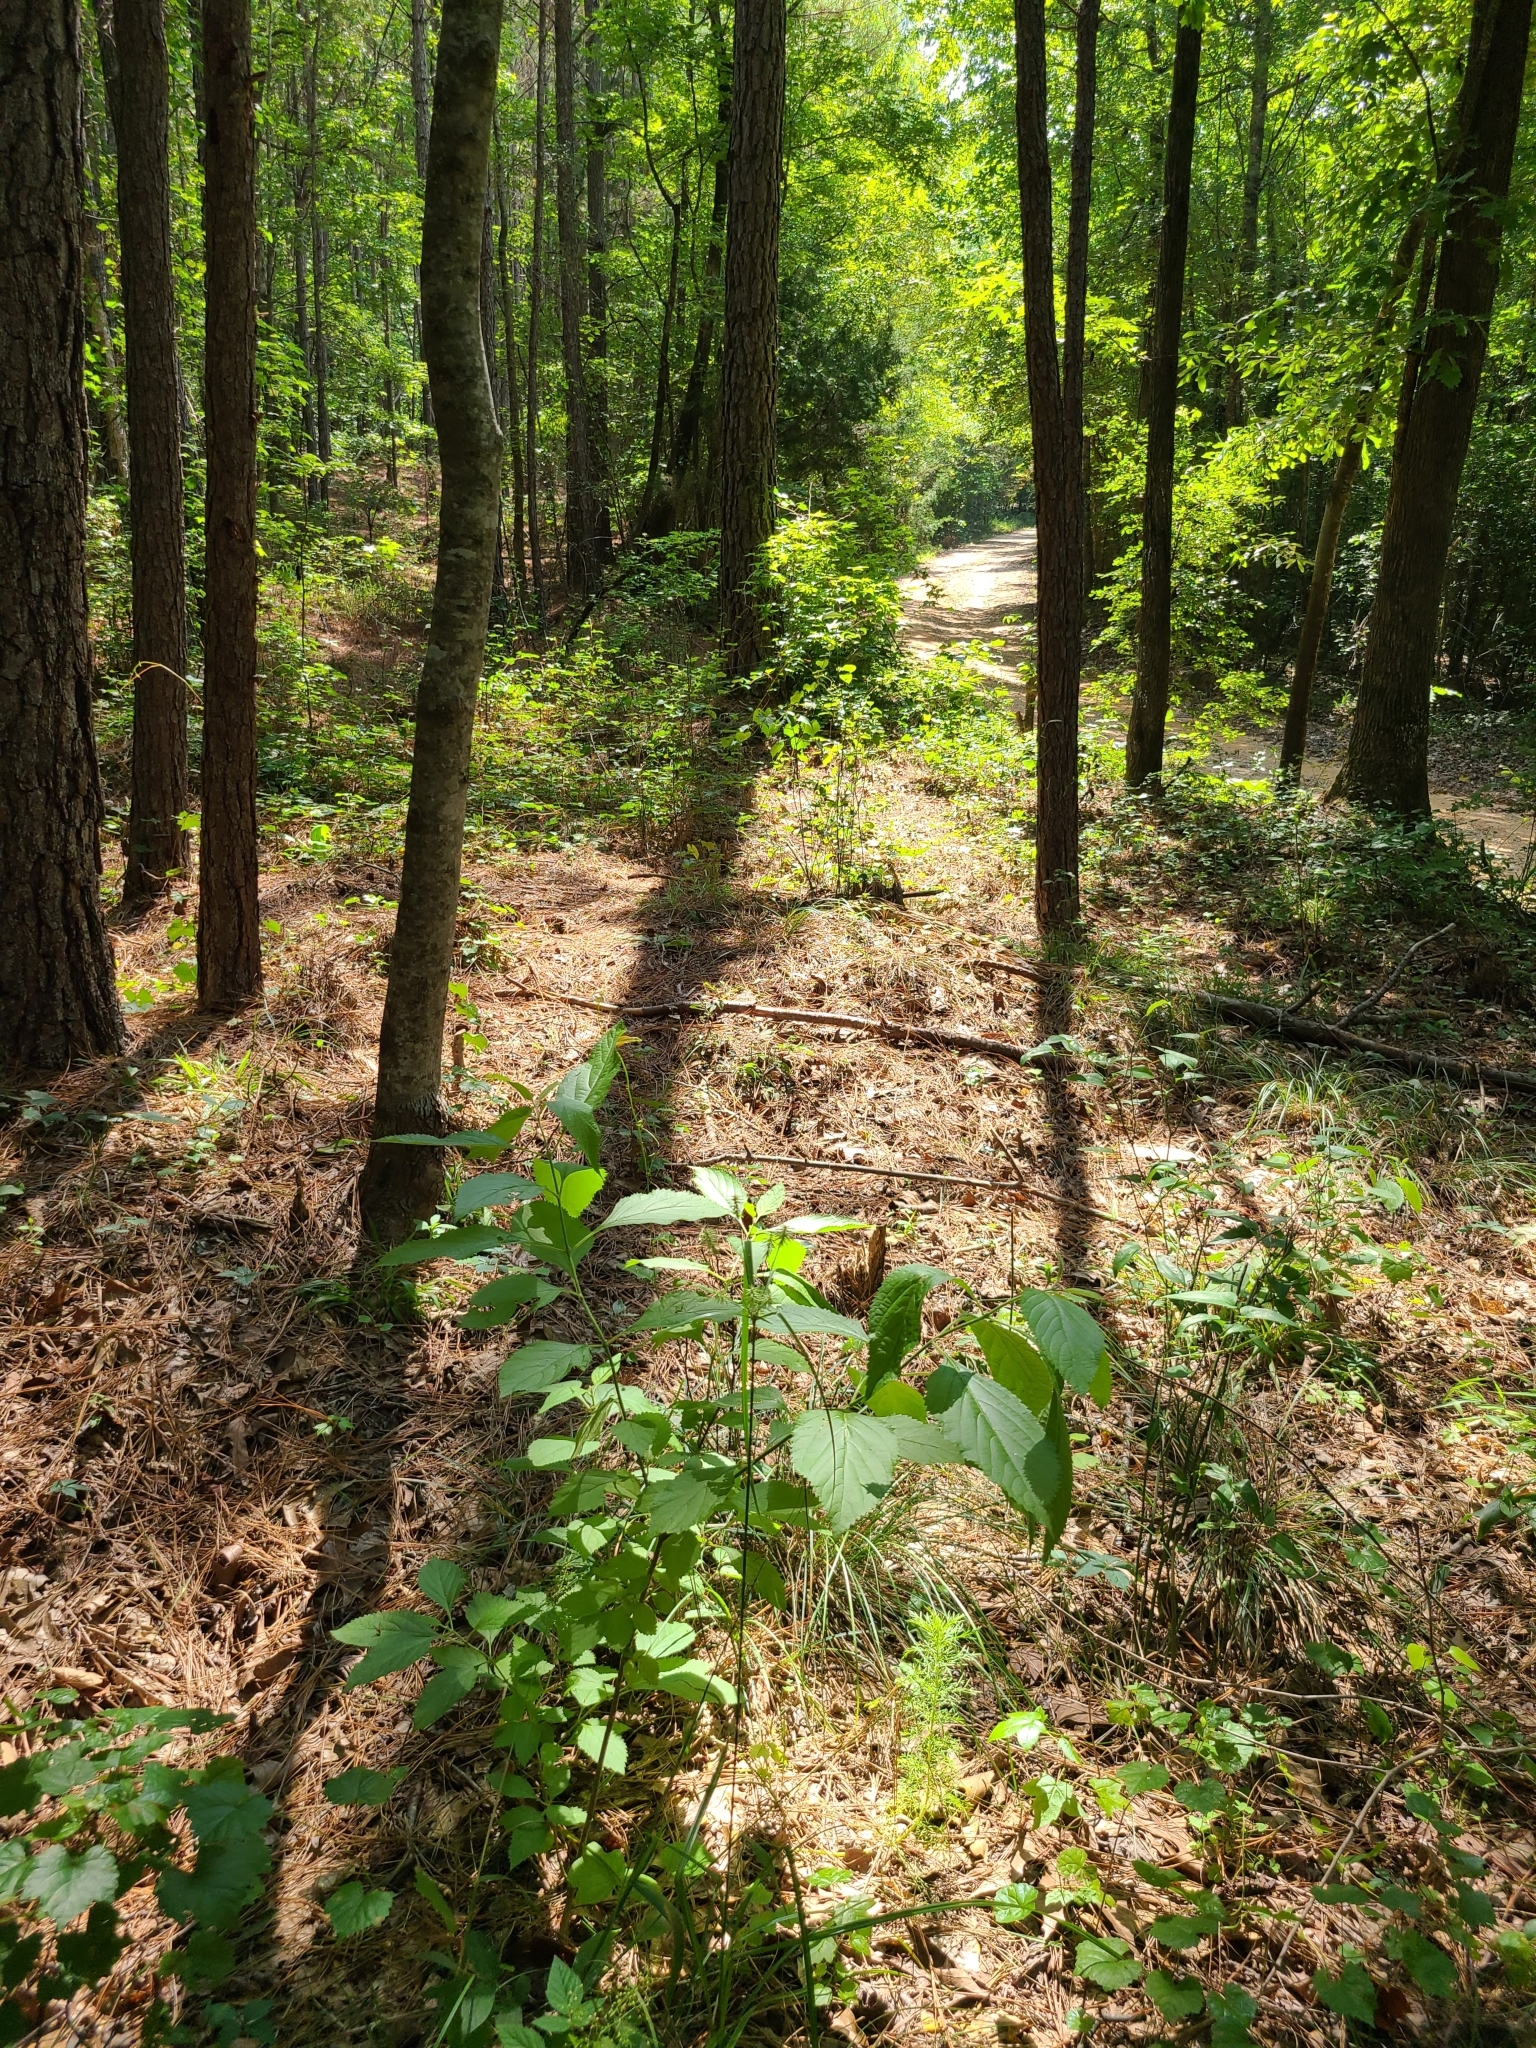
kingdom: Plantae
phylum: Tracheophyta
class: Liliopsida
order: Poales
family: Cyperaceae
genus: Cyperus
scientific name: Cyperus retrofractus
